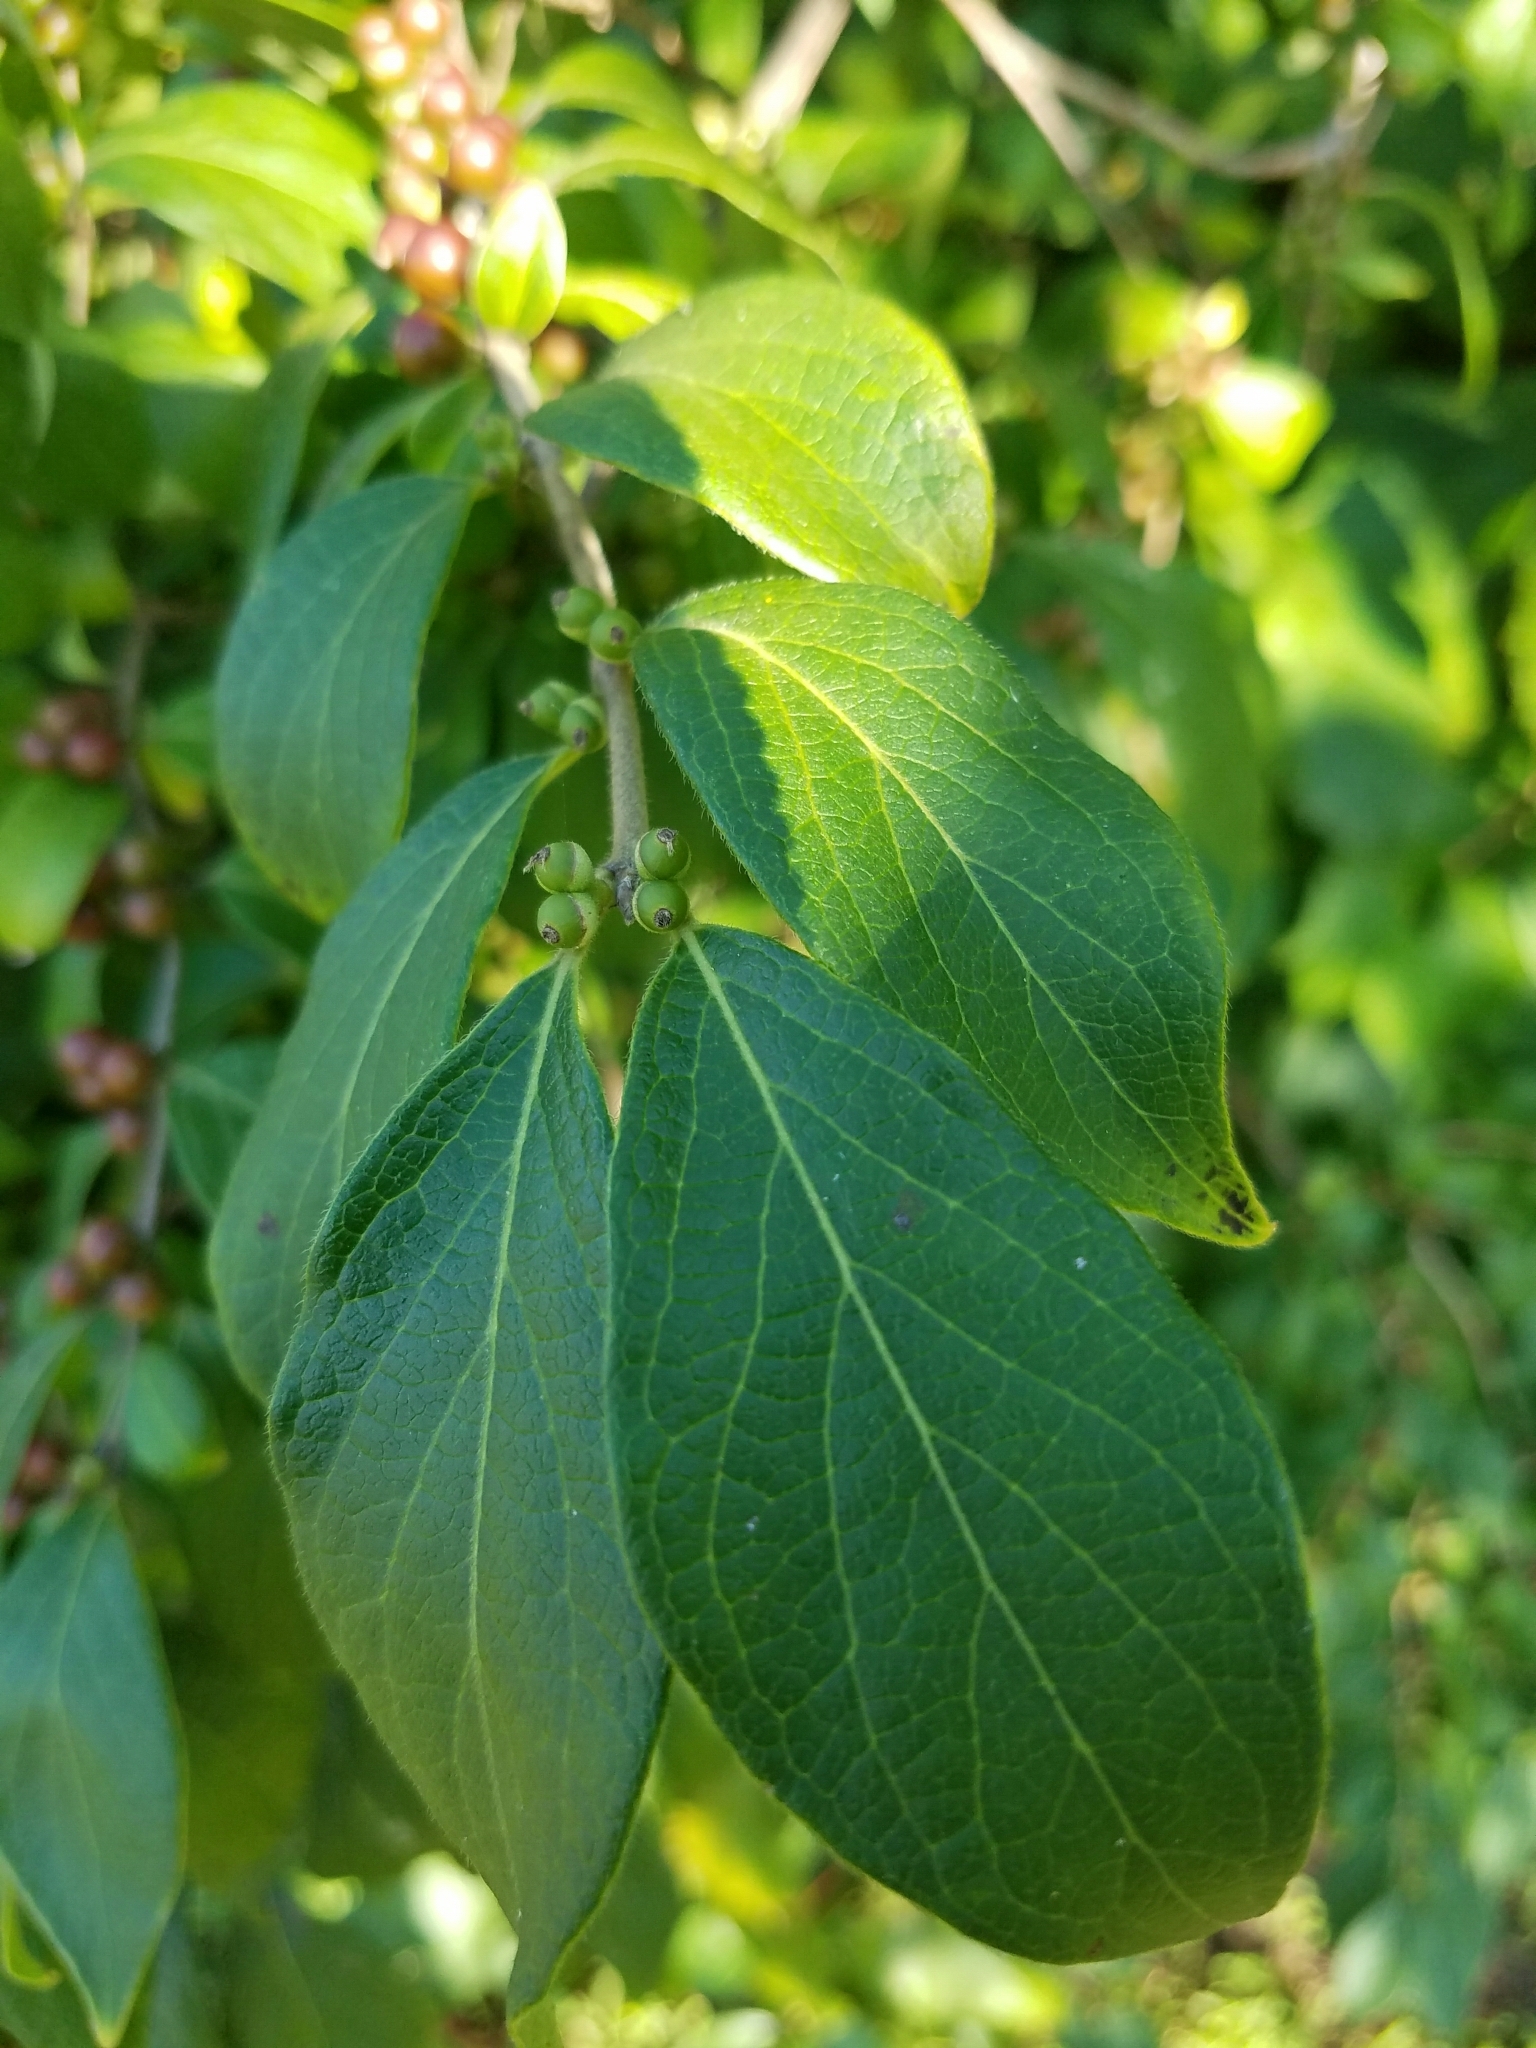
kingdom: Plantae
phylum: Tracheophyta
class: Magnoliopsida
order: Dipsacales
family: Caprifoliaceae
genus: Lonicera
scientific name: Lonicera maackii
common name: Amur honeysuckle
